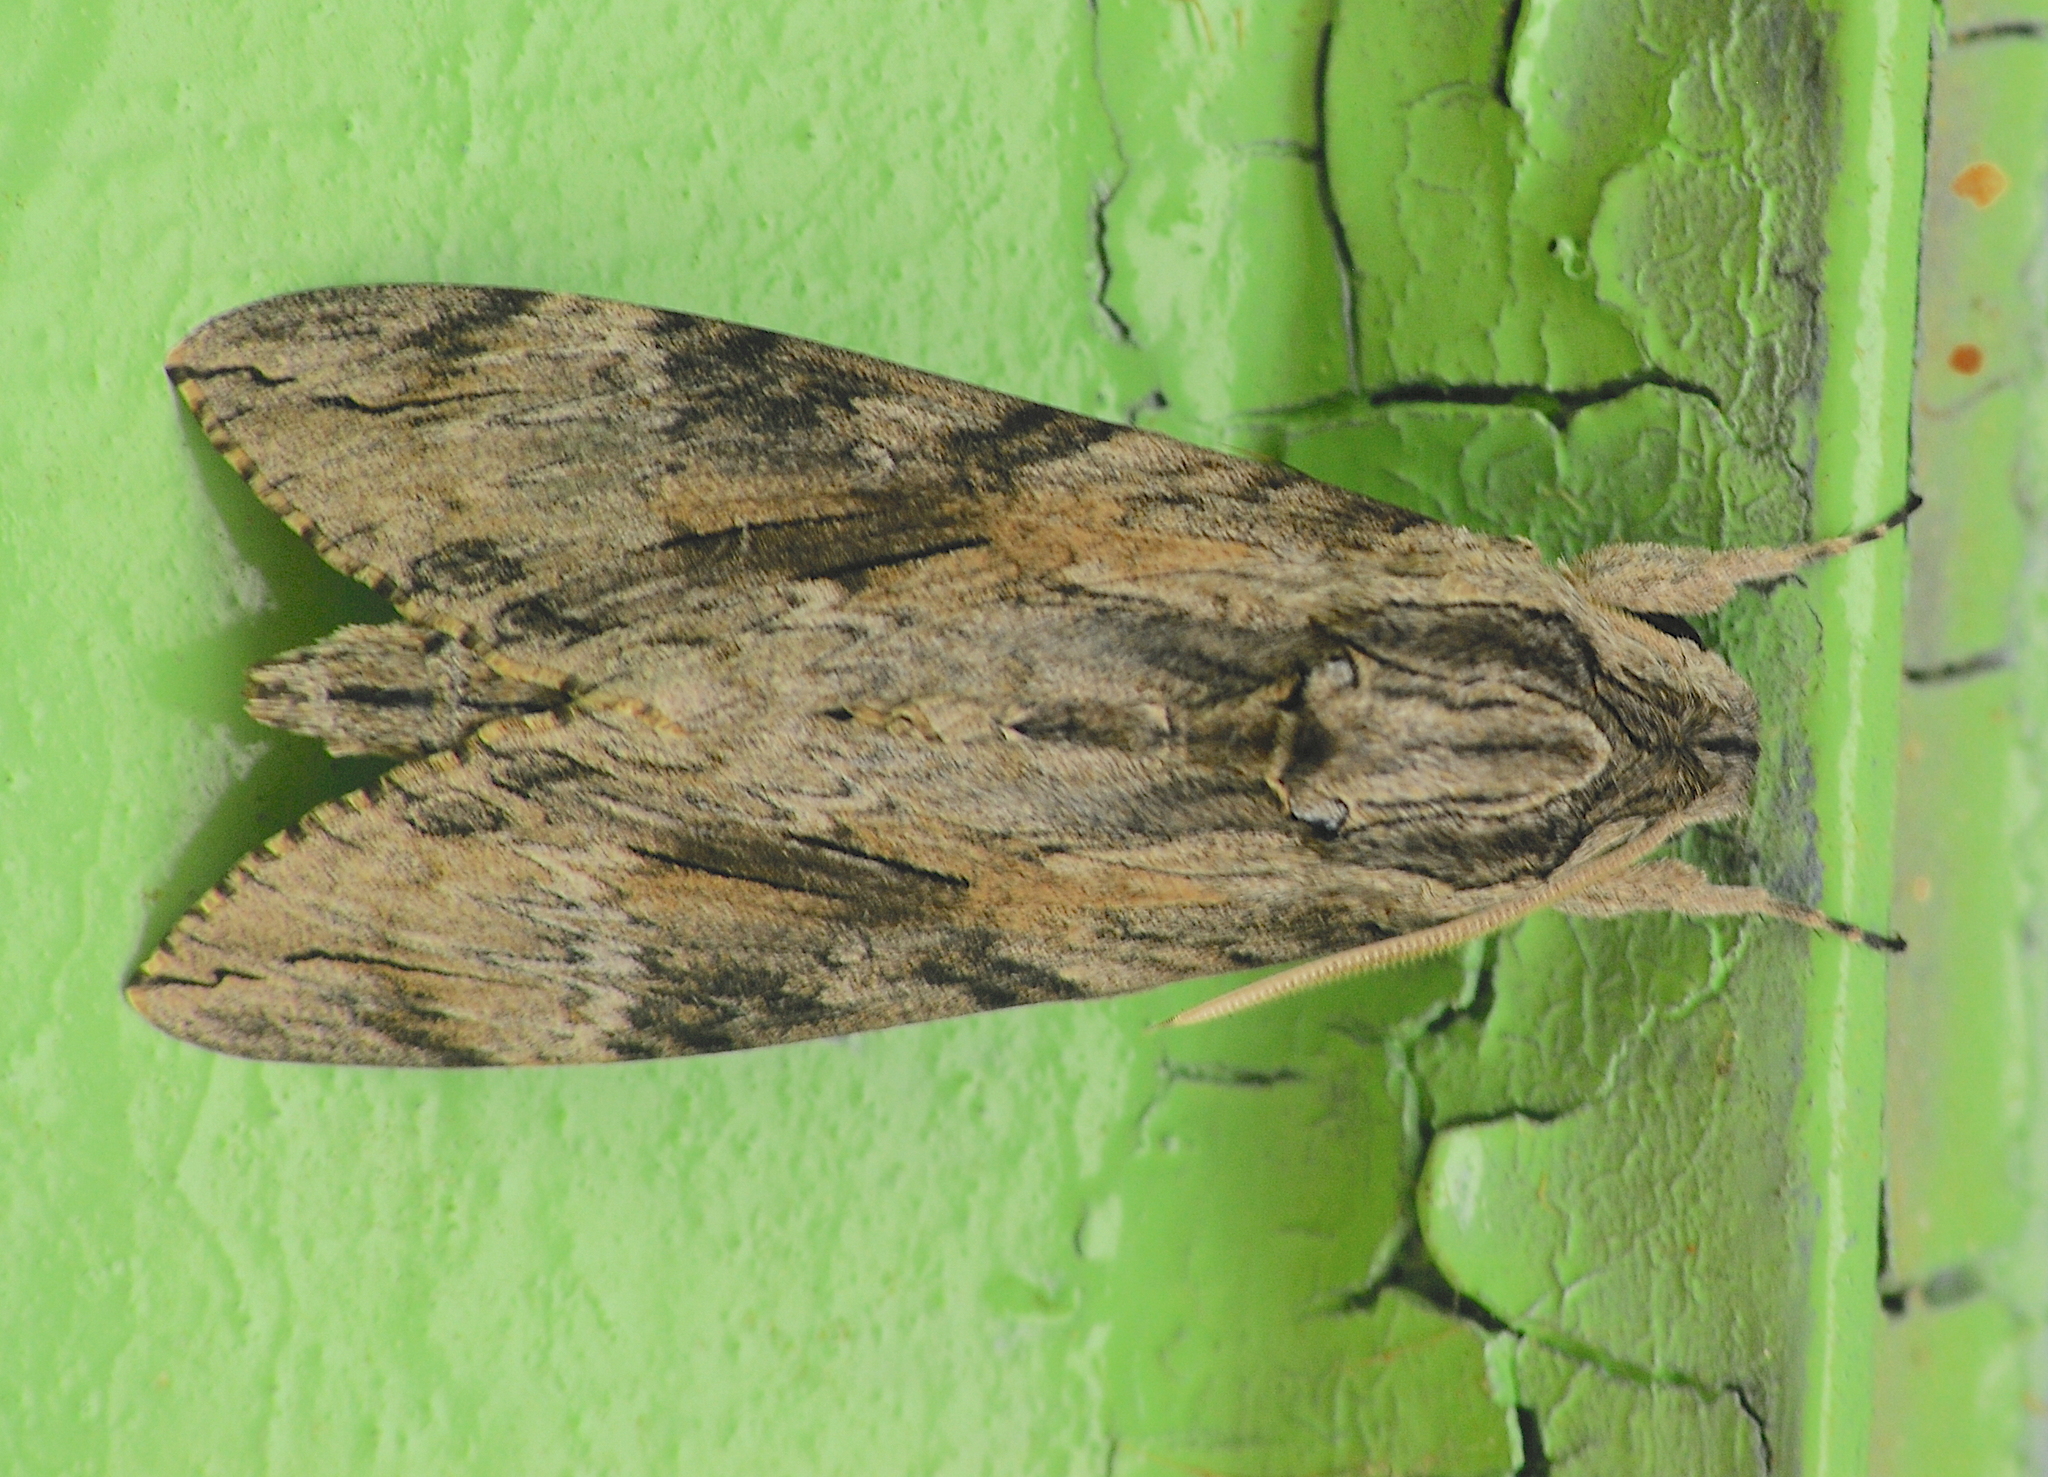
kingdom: Animalia
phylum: Arthropoda
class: Insecta
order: Lepidoptera
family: Sphingidae
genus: Agrius
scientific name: Agrius convolvuli
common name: Convolvulus hawkmoth
